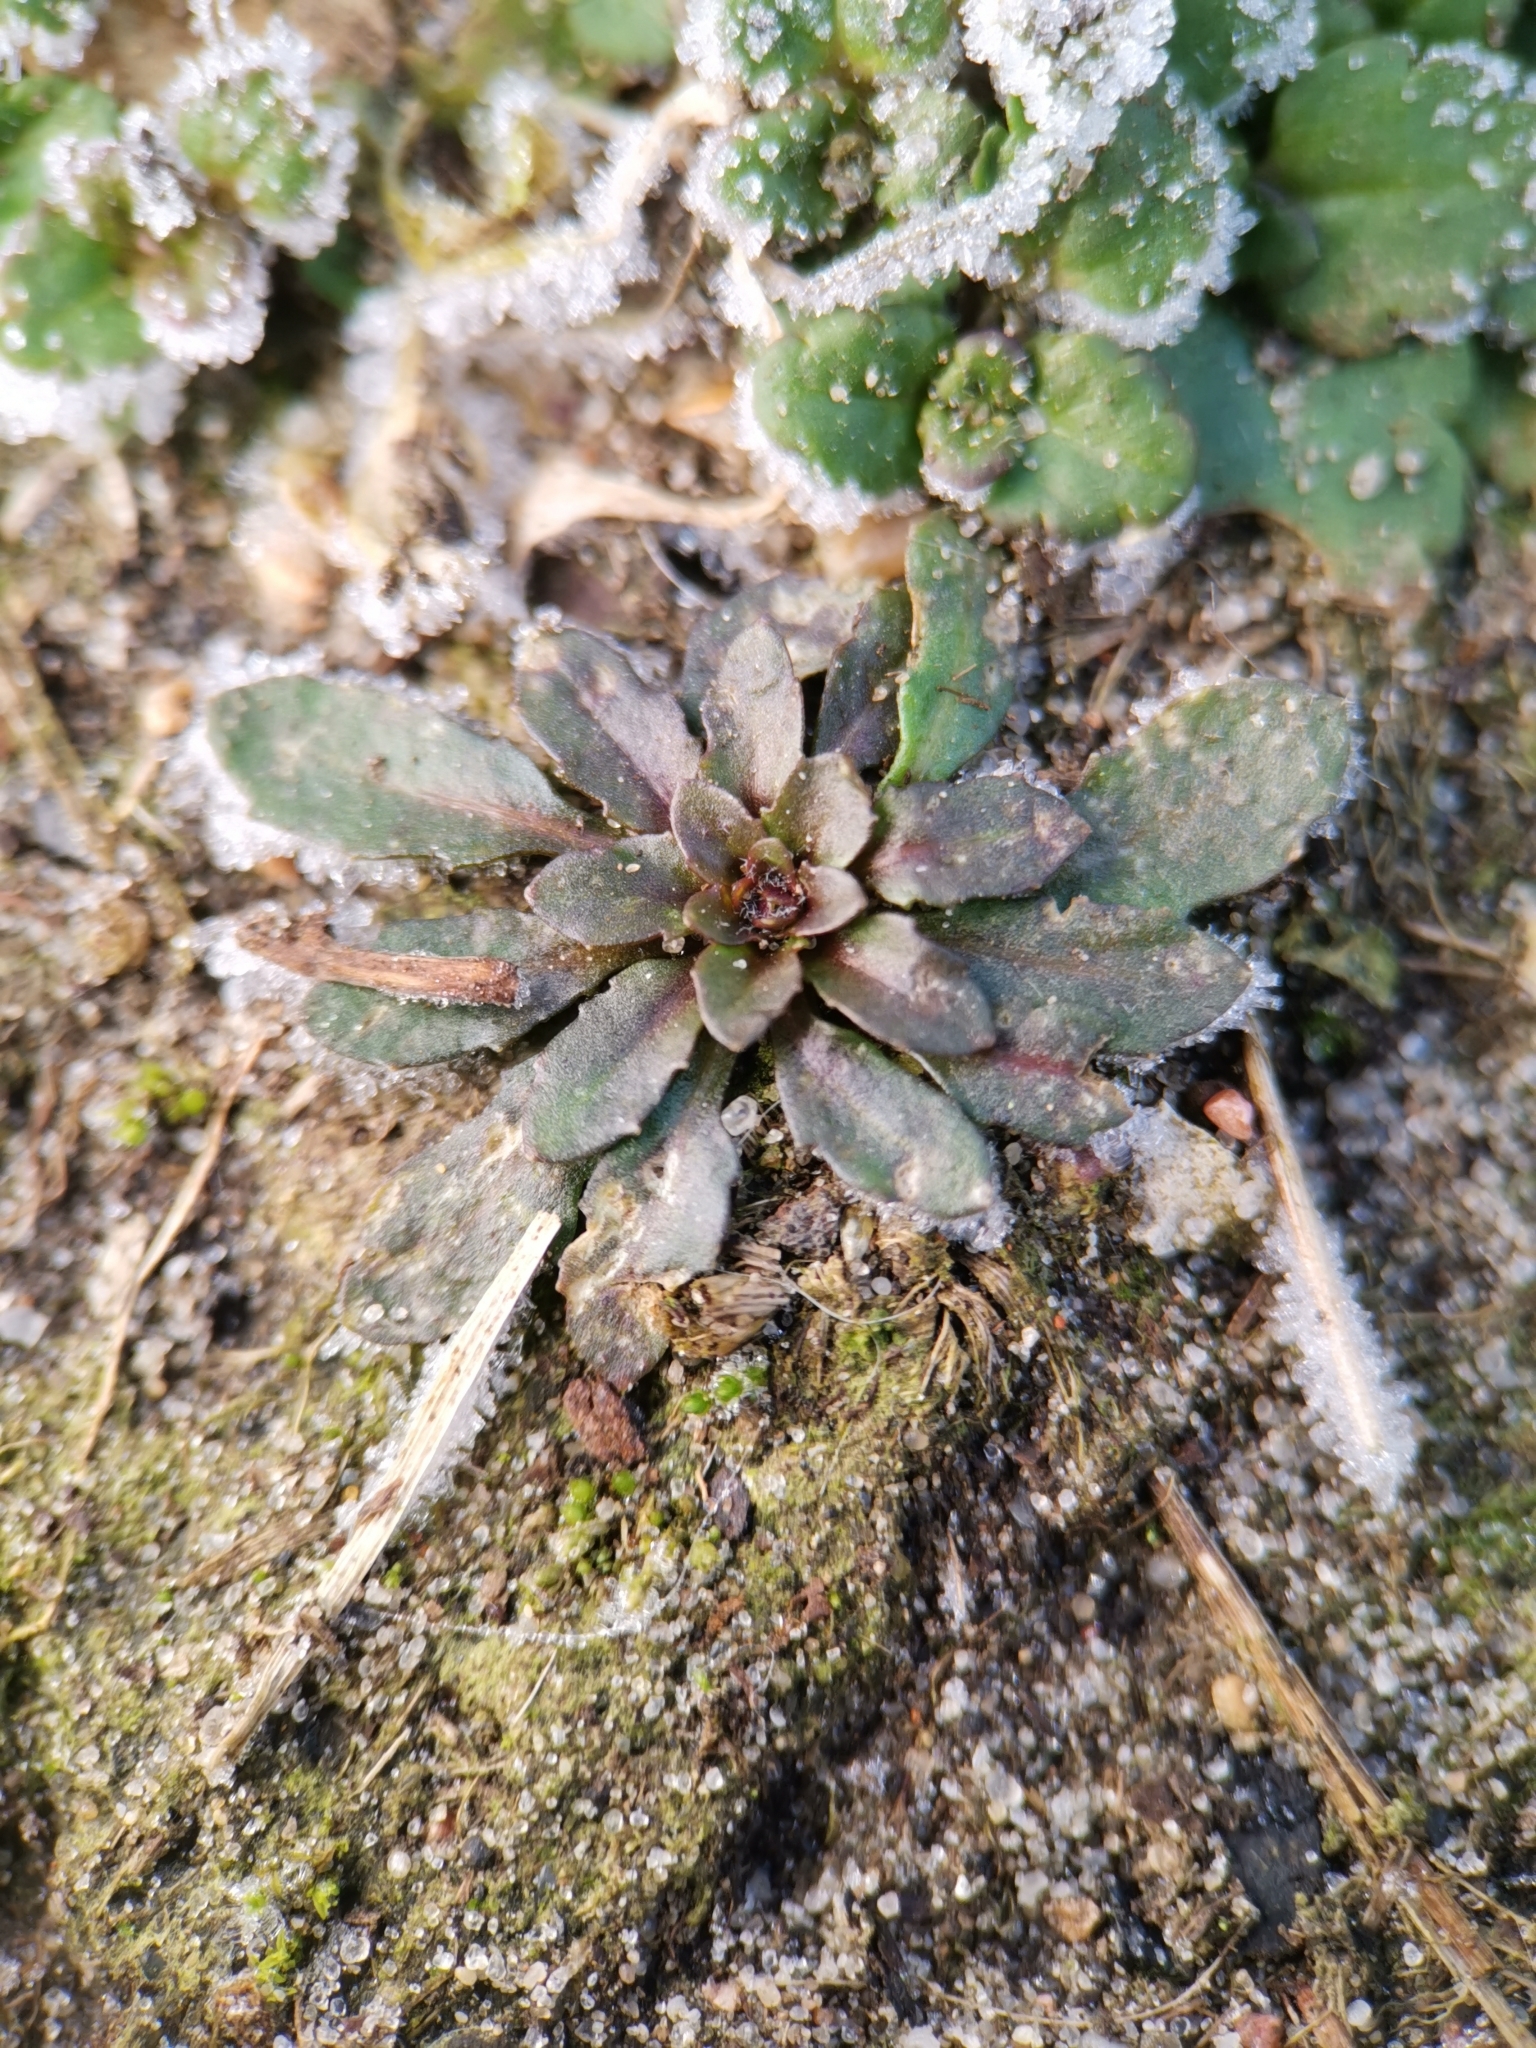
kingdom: Plantae
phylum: Tracheophyta
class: Magnoliopsida
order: Brassicales
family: Brassicaceae
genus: Arabidopsis
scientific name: Arabidopsis thaliana
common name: Thale cress
